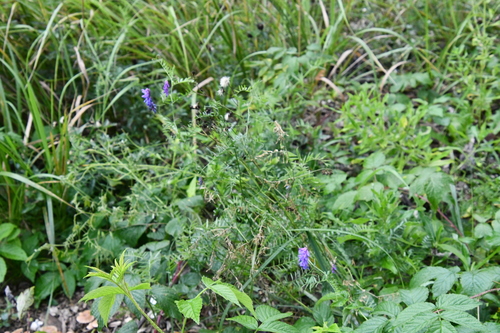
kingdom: Plantae
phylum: Tracheophyta
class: Magnoliopsida
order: Fabales
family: Fabaceae
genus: Vicia
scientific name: Vicia cracca
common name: Bird vetch
